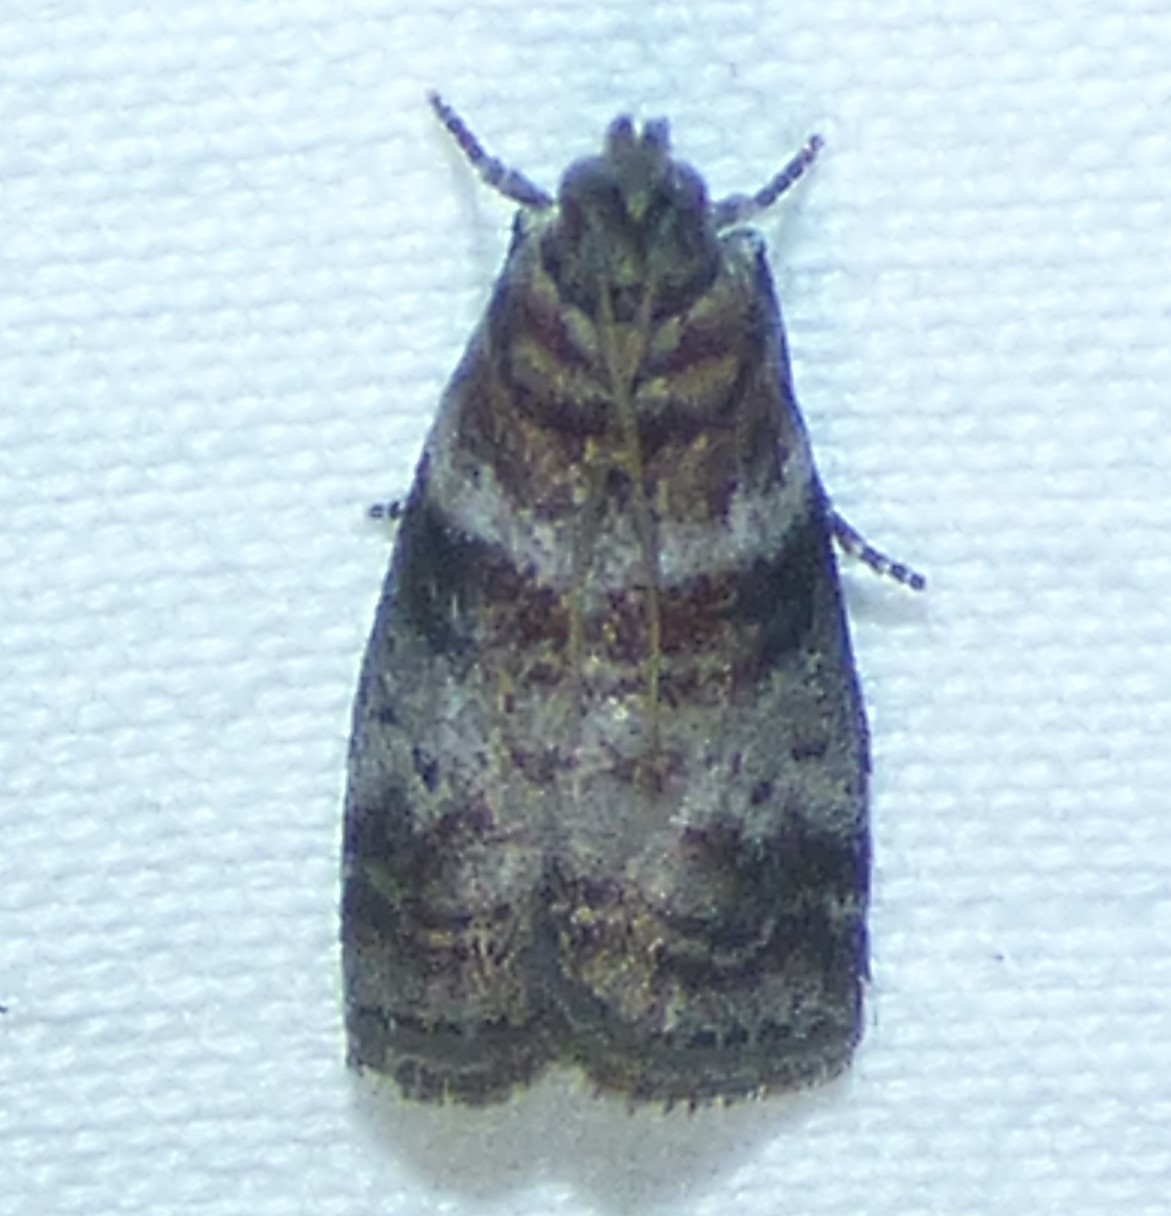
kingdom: Animalia
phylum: Arthropoda
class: Insecta
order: Lepidoptera
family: Pyralidae
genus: Sciota
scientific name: Sciota uvinella
